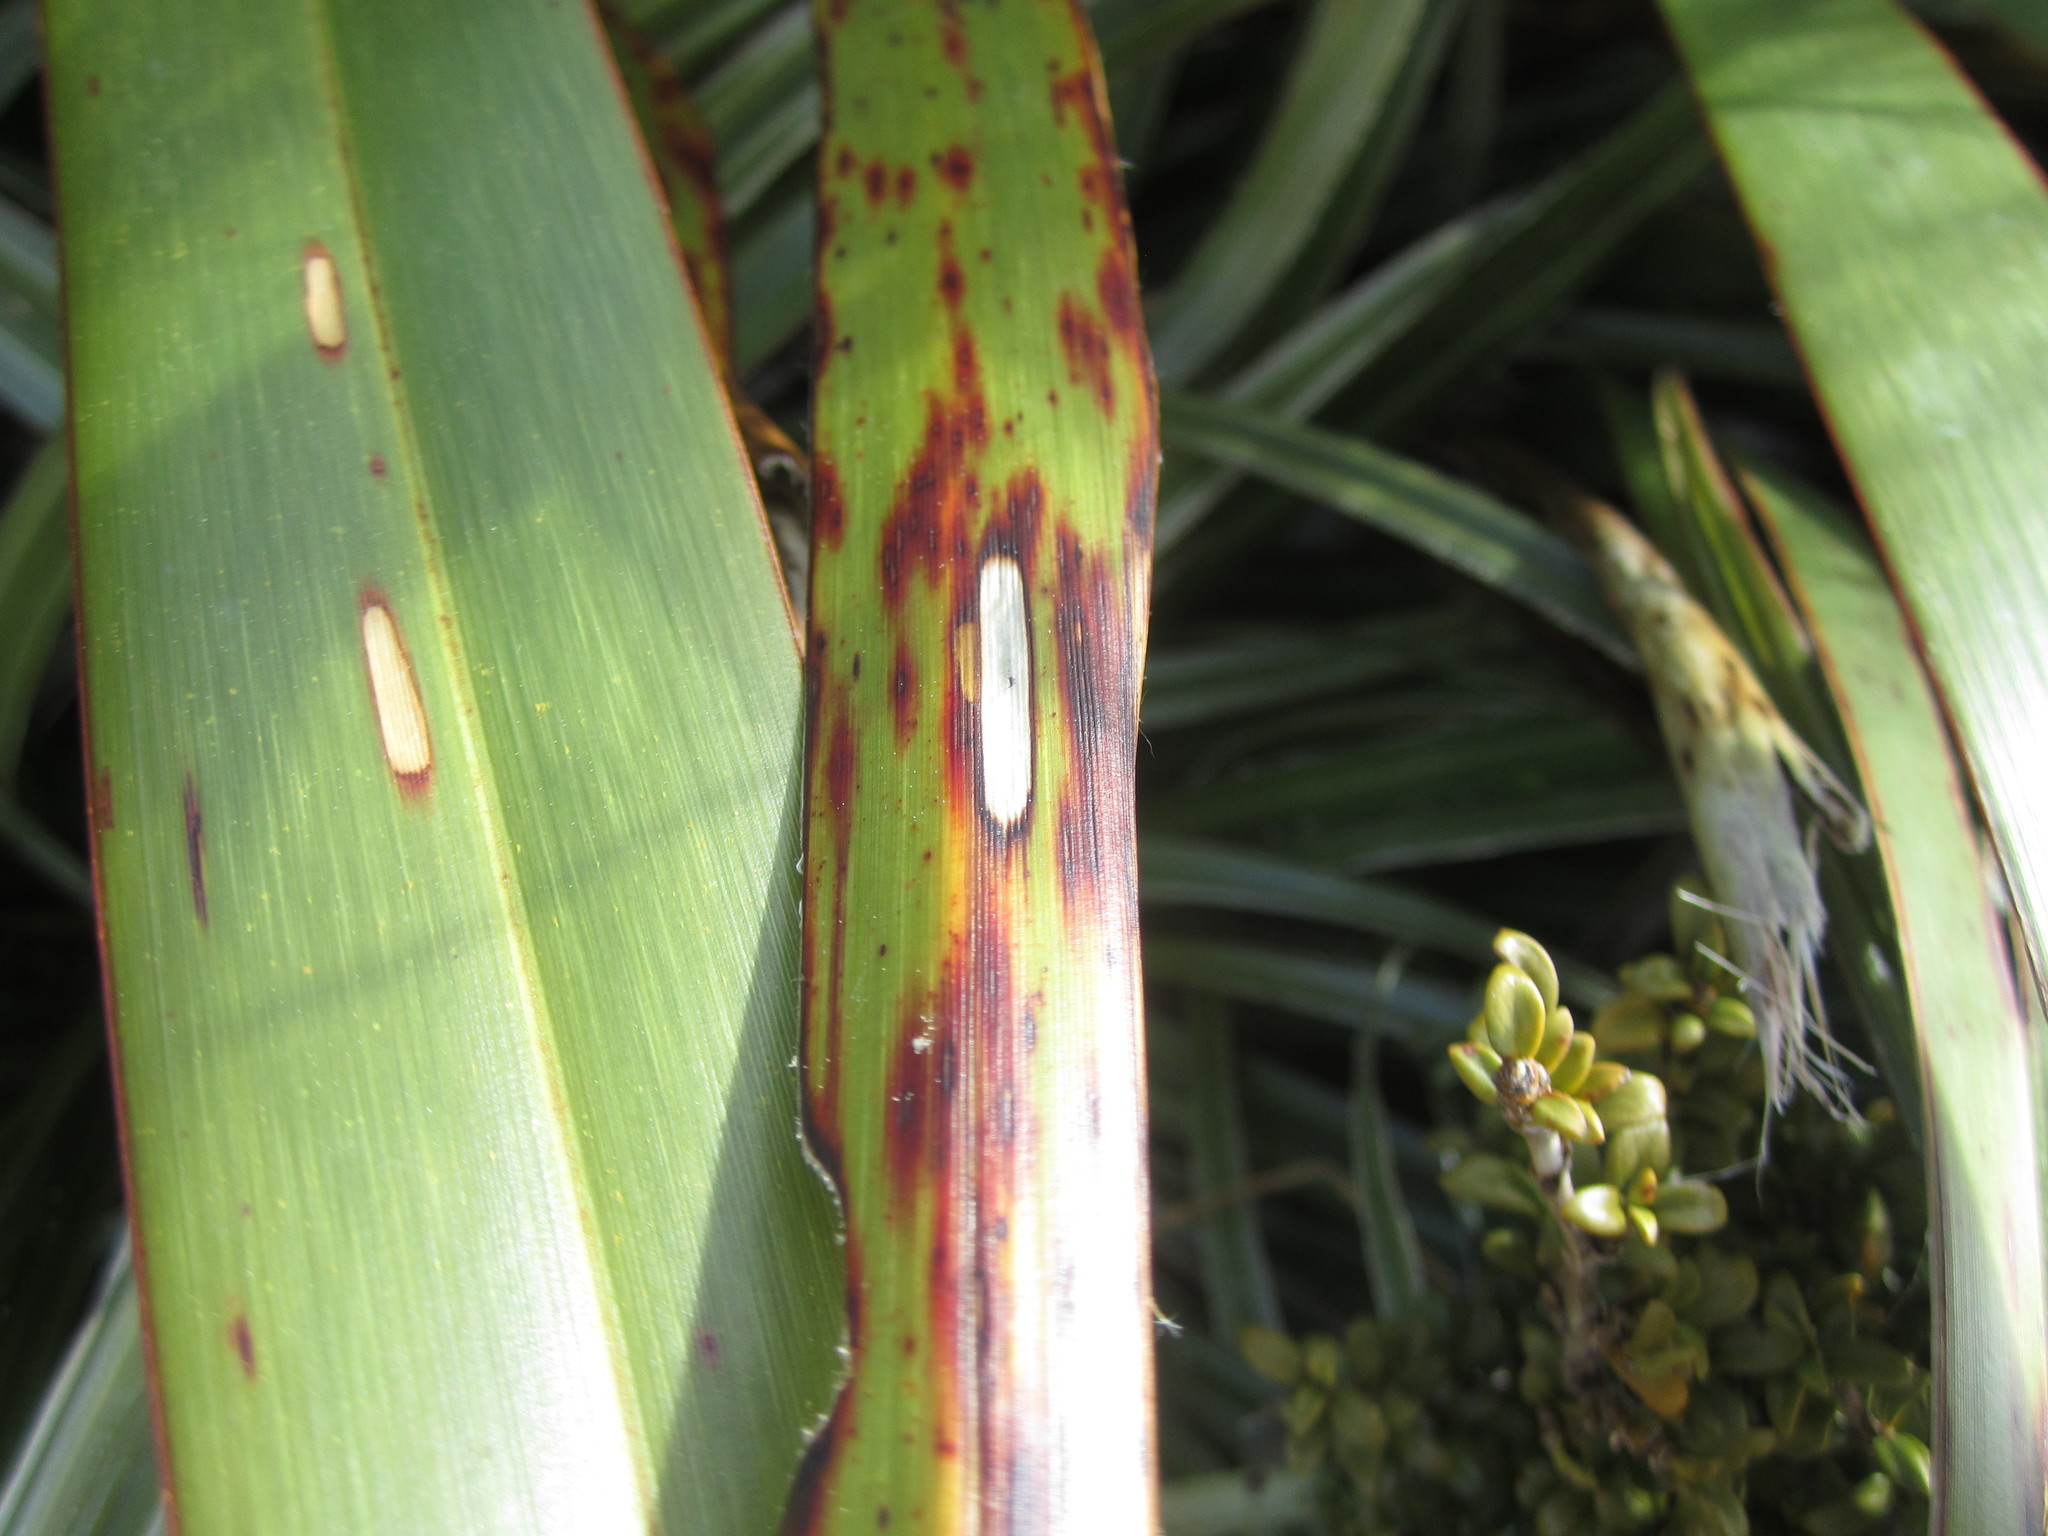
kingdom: Animalia
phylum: Arthropoda
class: Insecta
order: Lepidoptera
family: Geometridae
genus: Orthoclydon
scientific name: Orthoclydon praefectata
